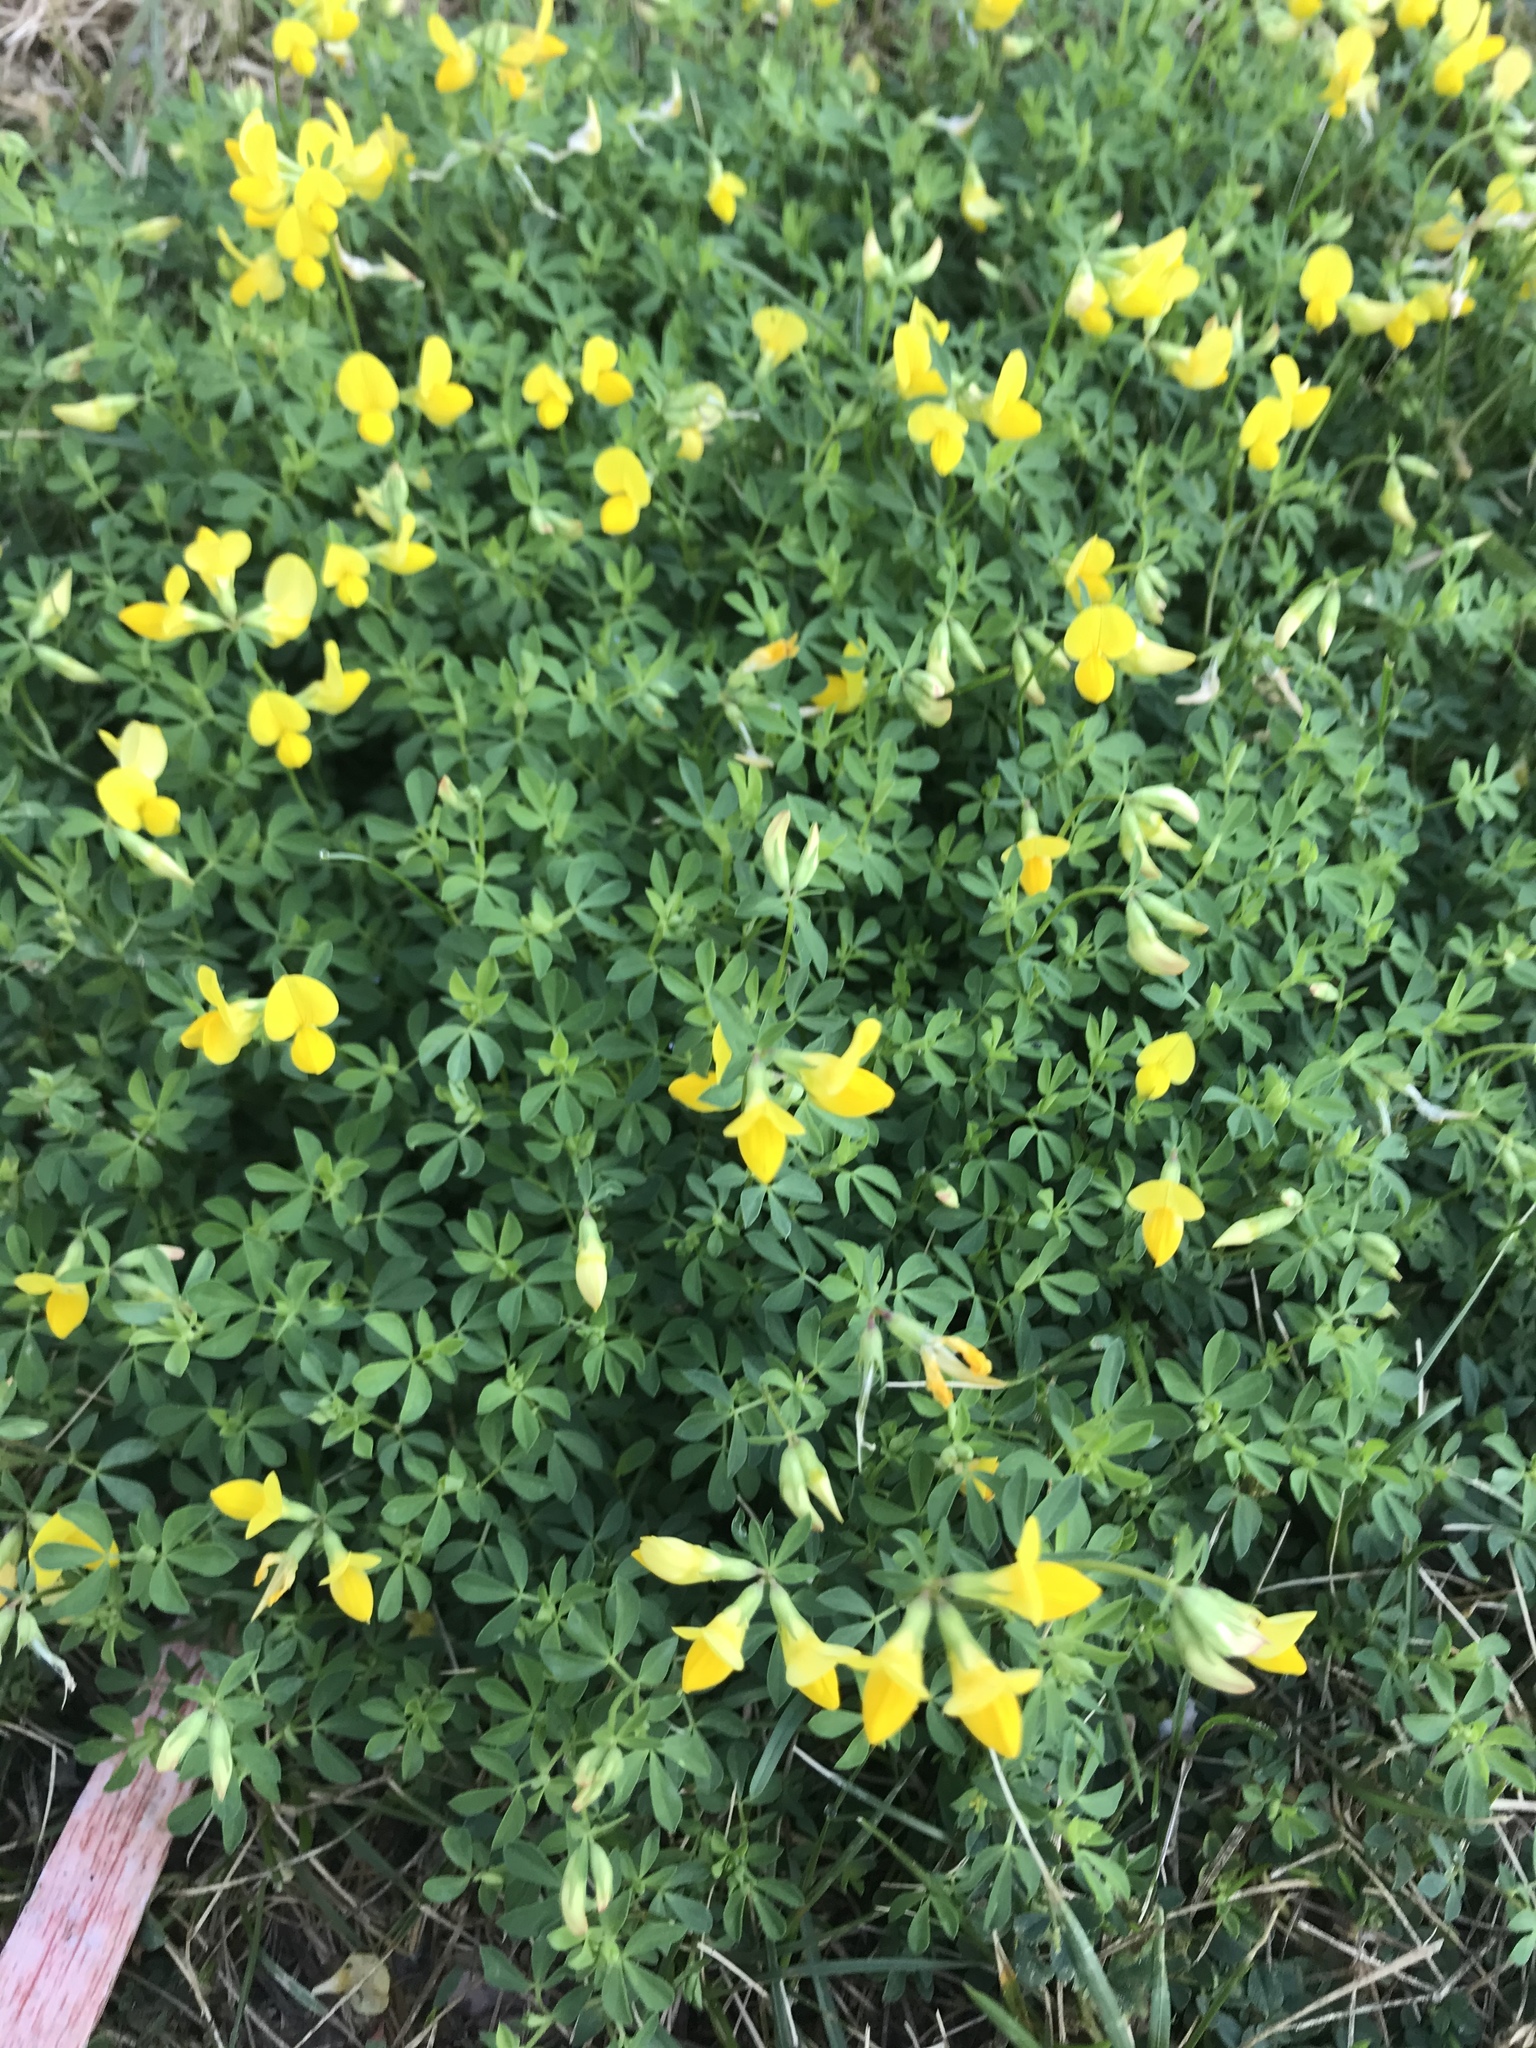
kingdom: Plantae
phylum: Tracheophyta
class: Magnoliopsida
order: Fabales
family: Fabaceae
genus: Lotus
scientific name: Lotus corniculatus
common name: Common bird's-foot-trefoil
